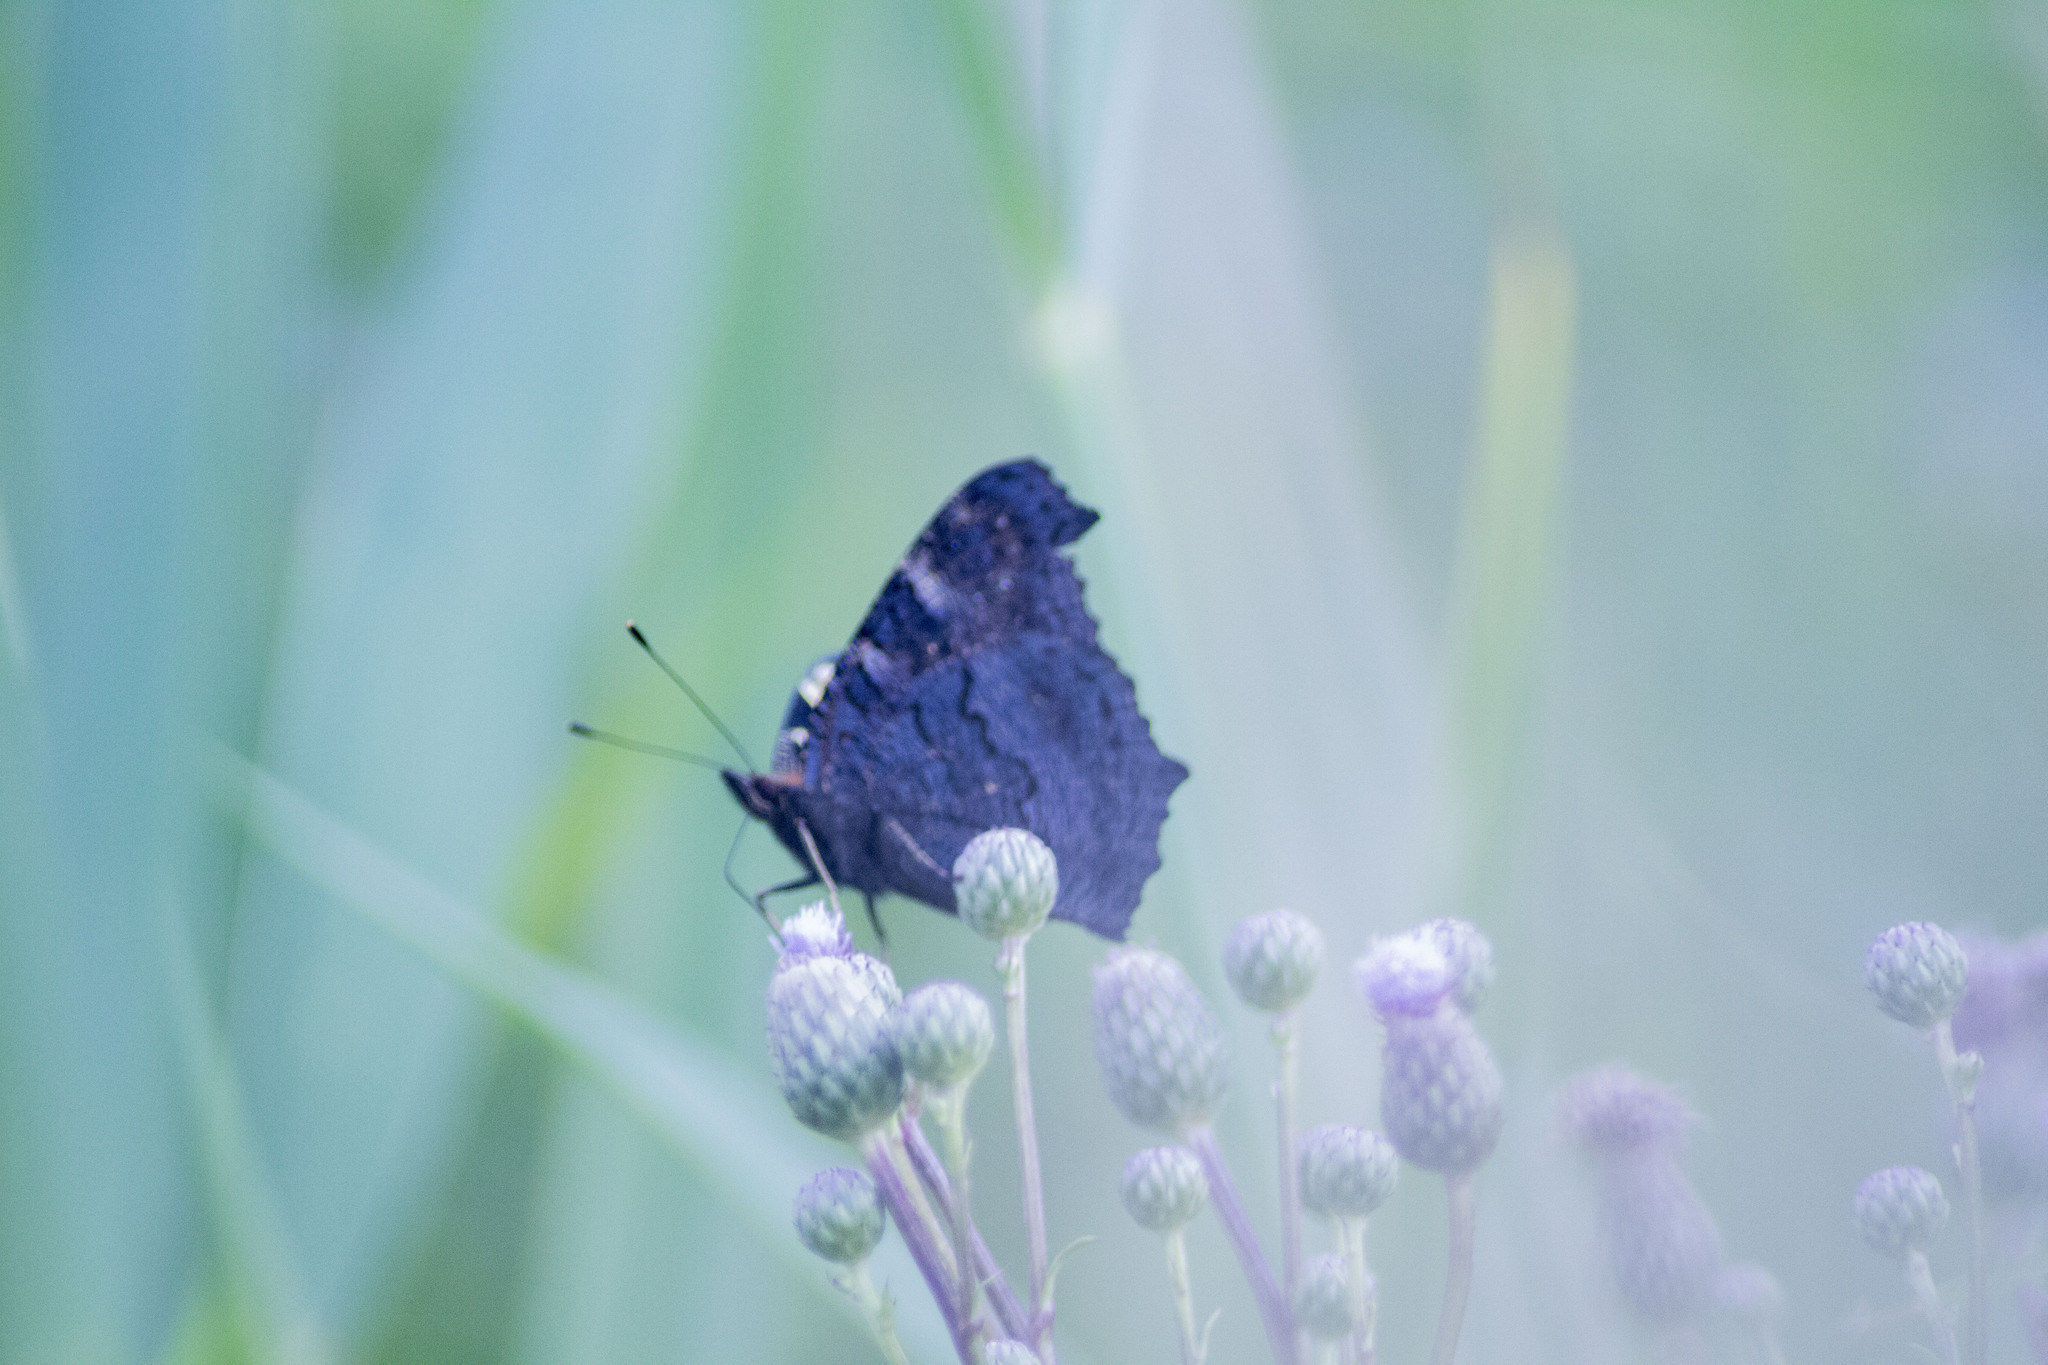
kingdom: Animalia
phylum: Arthropoda
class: Insecta
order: Lepidoptera
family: Nymphalidae
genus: Aglais
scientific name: Aglais io
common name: Peacock
